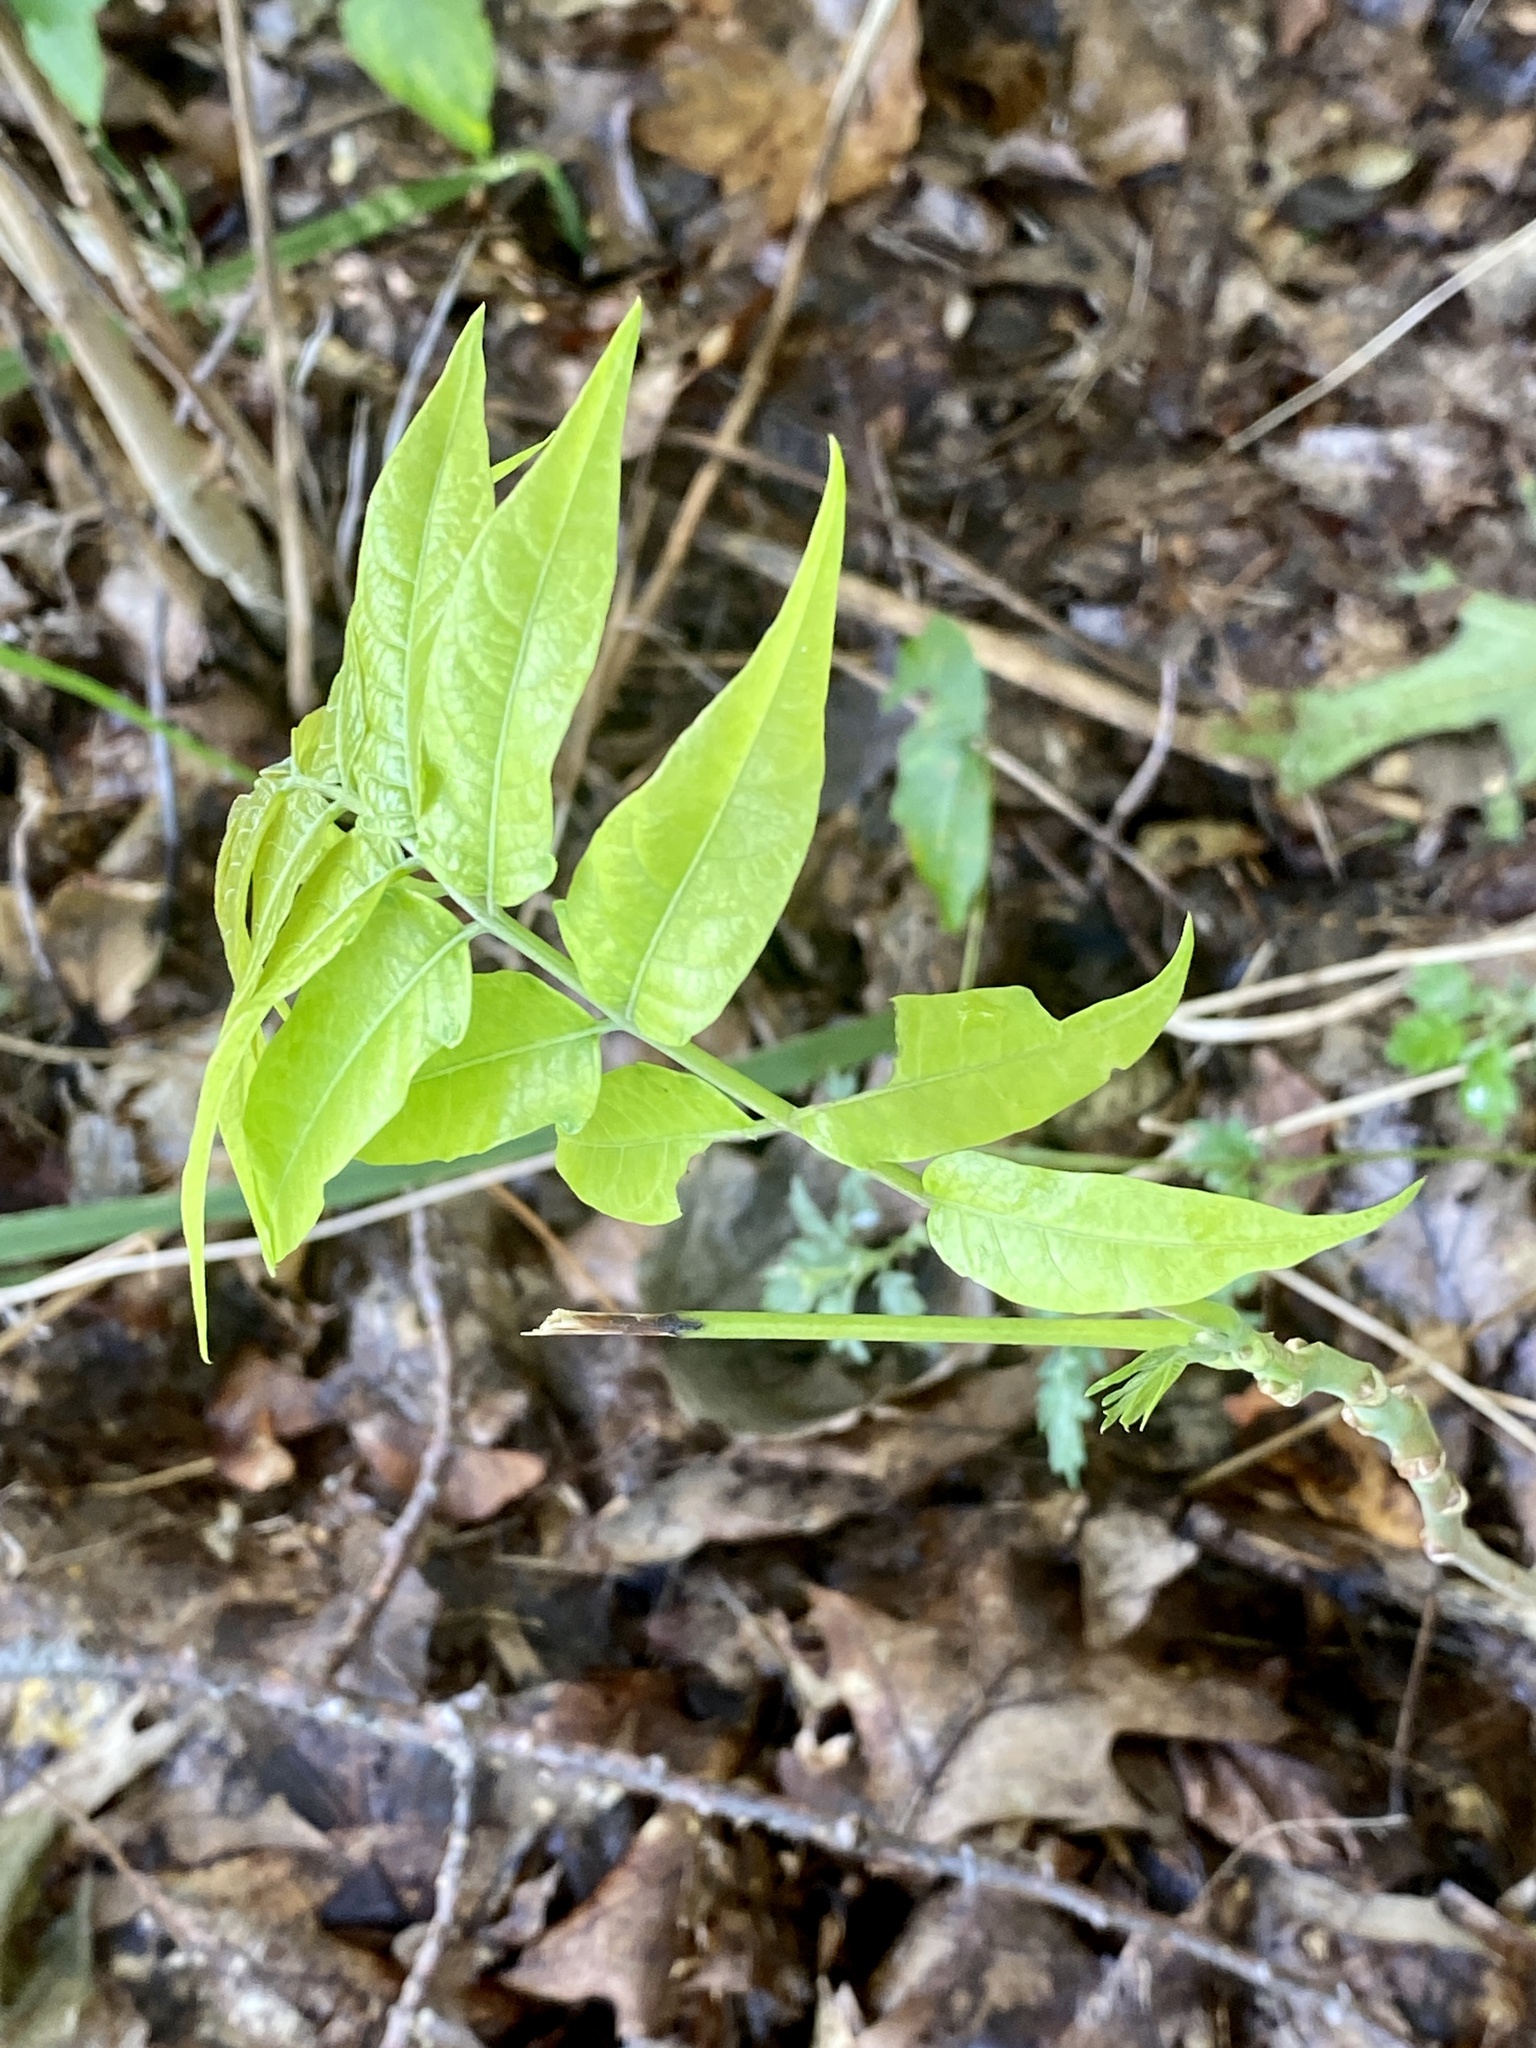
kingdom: Plantae
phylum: Tracheophyta
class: Magnoliopsida
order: Sapindales
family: Simaroubaceae
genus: Ailanthus
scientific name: Ailanthus altissima
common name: Tree-of-heaven
